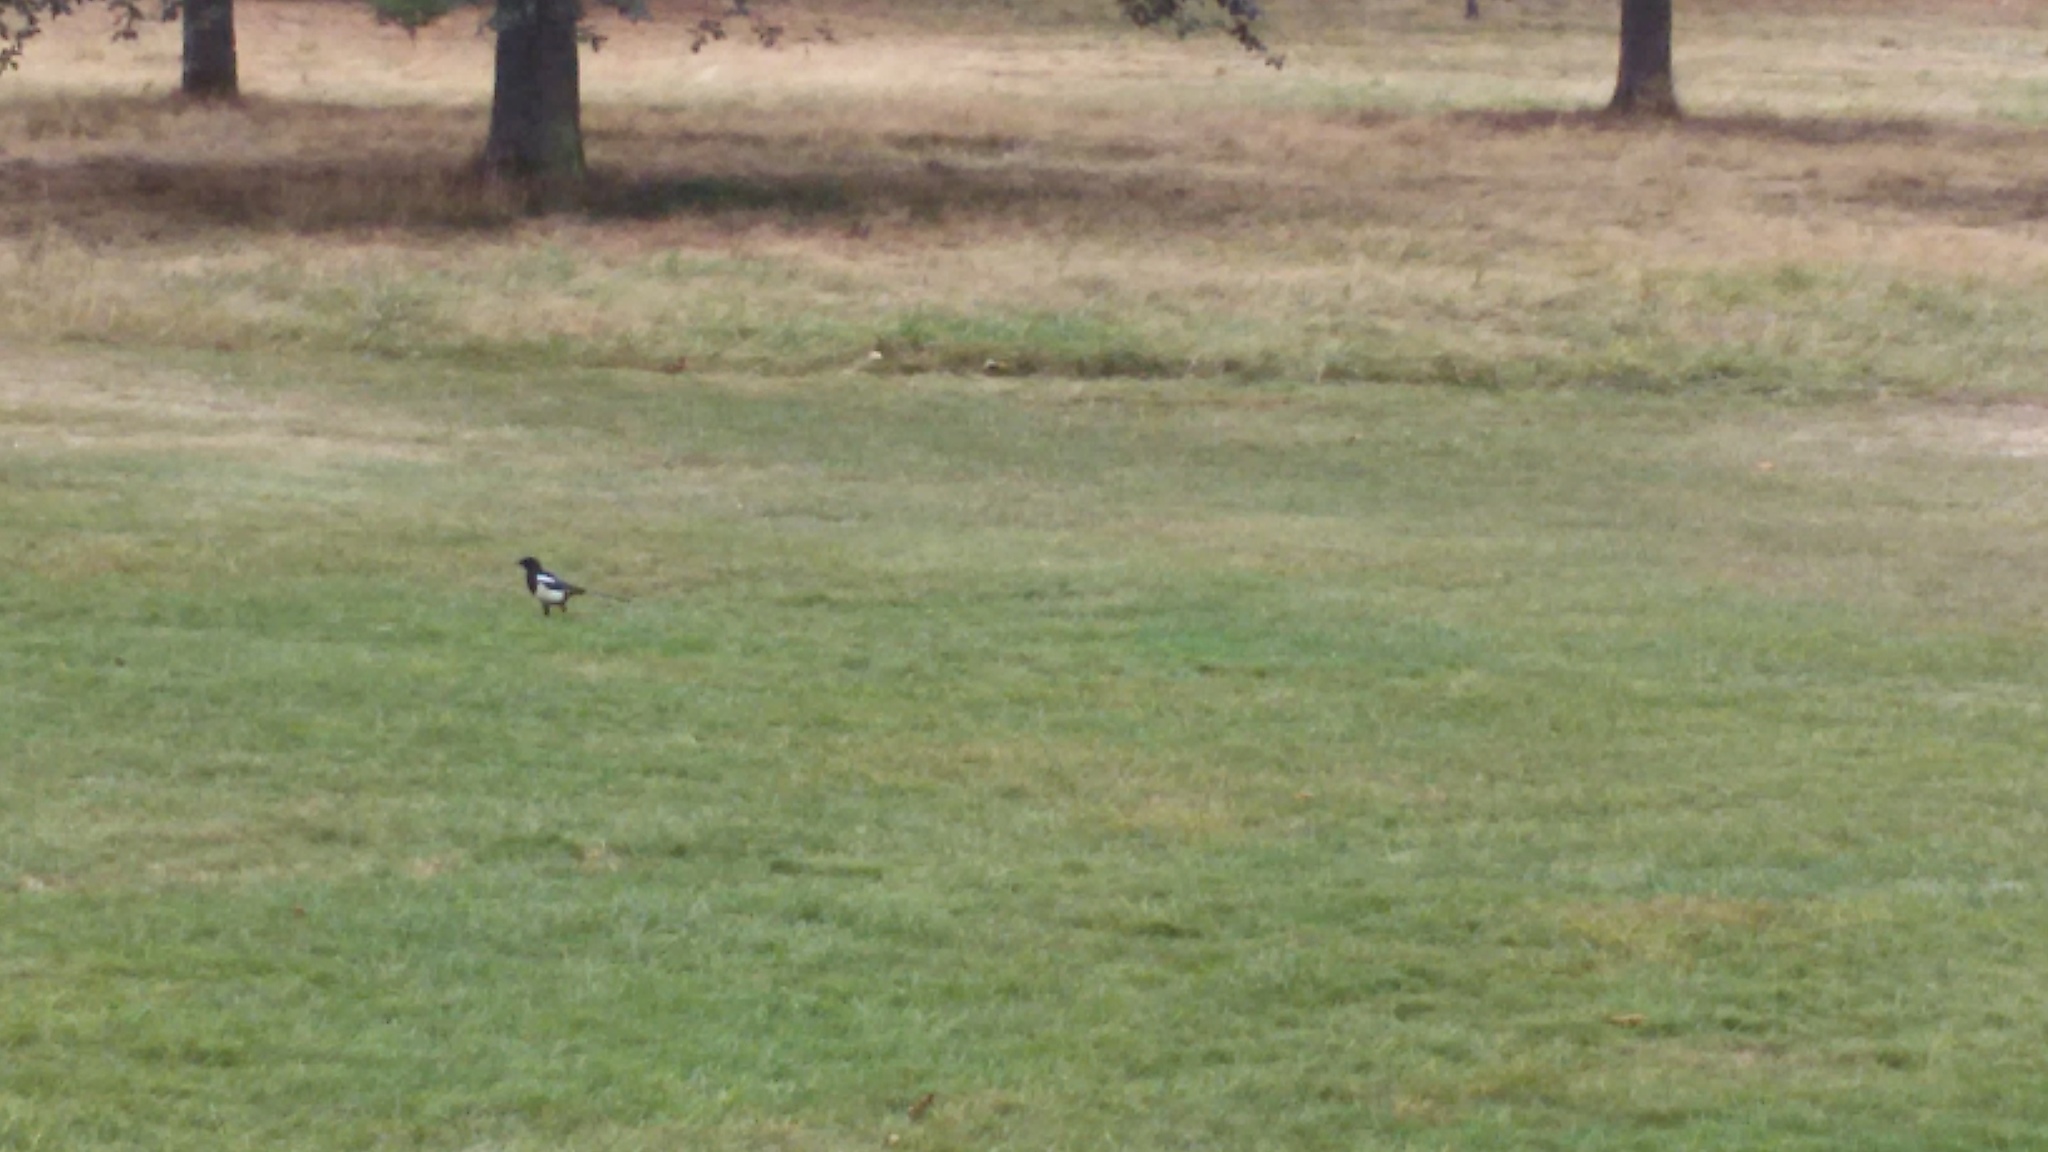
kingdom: Animalia
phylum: Chordata
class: Aves
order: Passeriformes
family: Corvidae
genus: Pica
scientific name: Pica pica
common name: Eurasian magpie
